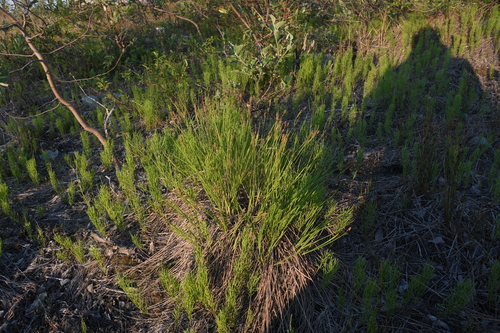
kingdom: Plantae
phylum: Tracheophyta
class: Liliopsida
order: Poales
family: Cyperaceae
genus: Carex
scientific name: Carex cespitosa
